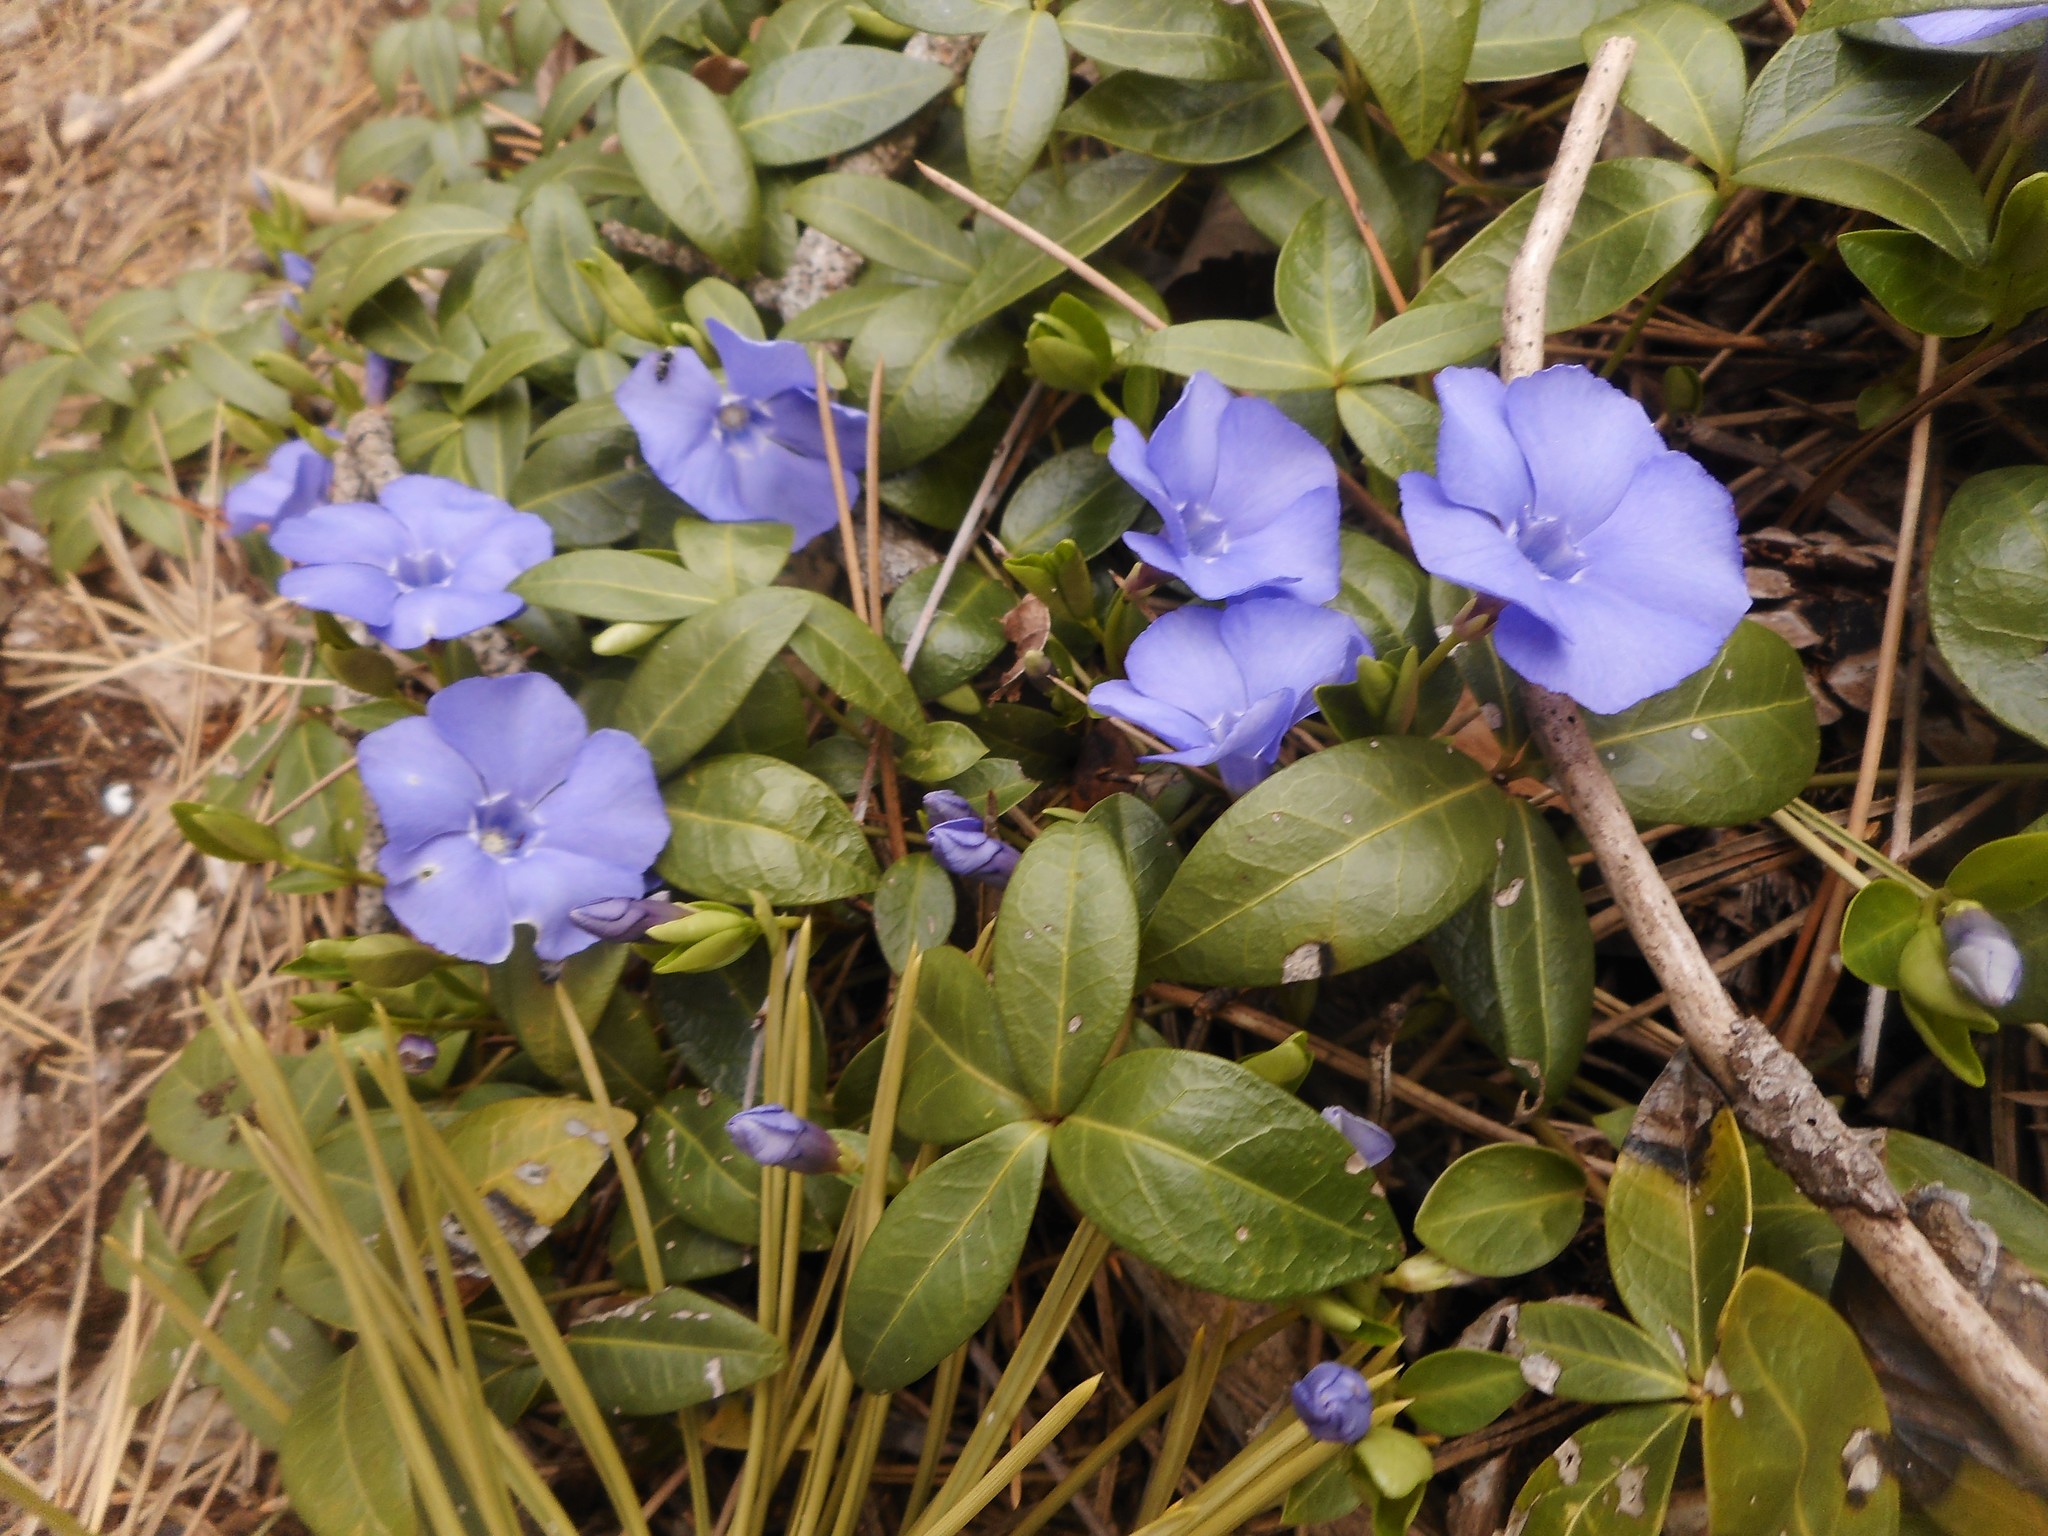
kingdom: Plantae
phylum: Tracheophyta
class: Magnoliopsida
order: Gentianales
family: Apocynaceae
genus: Vinca
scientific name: Vinca minor
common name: Lesser periwinkle
